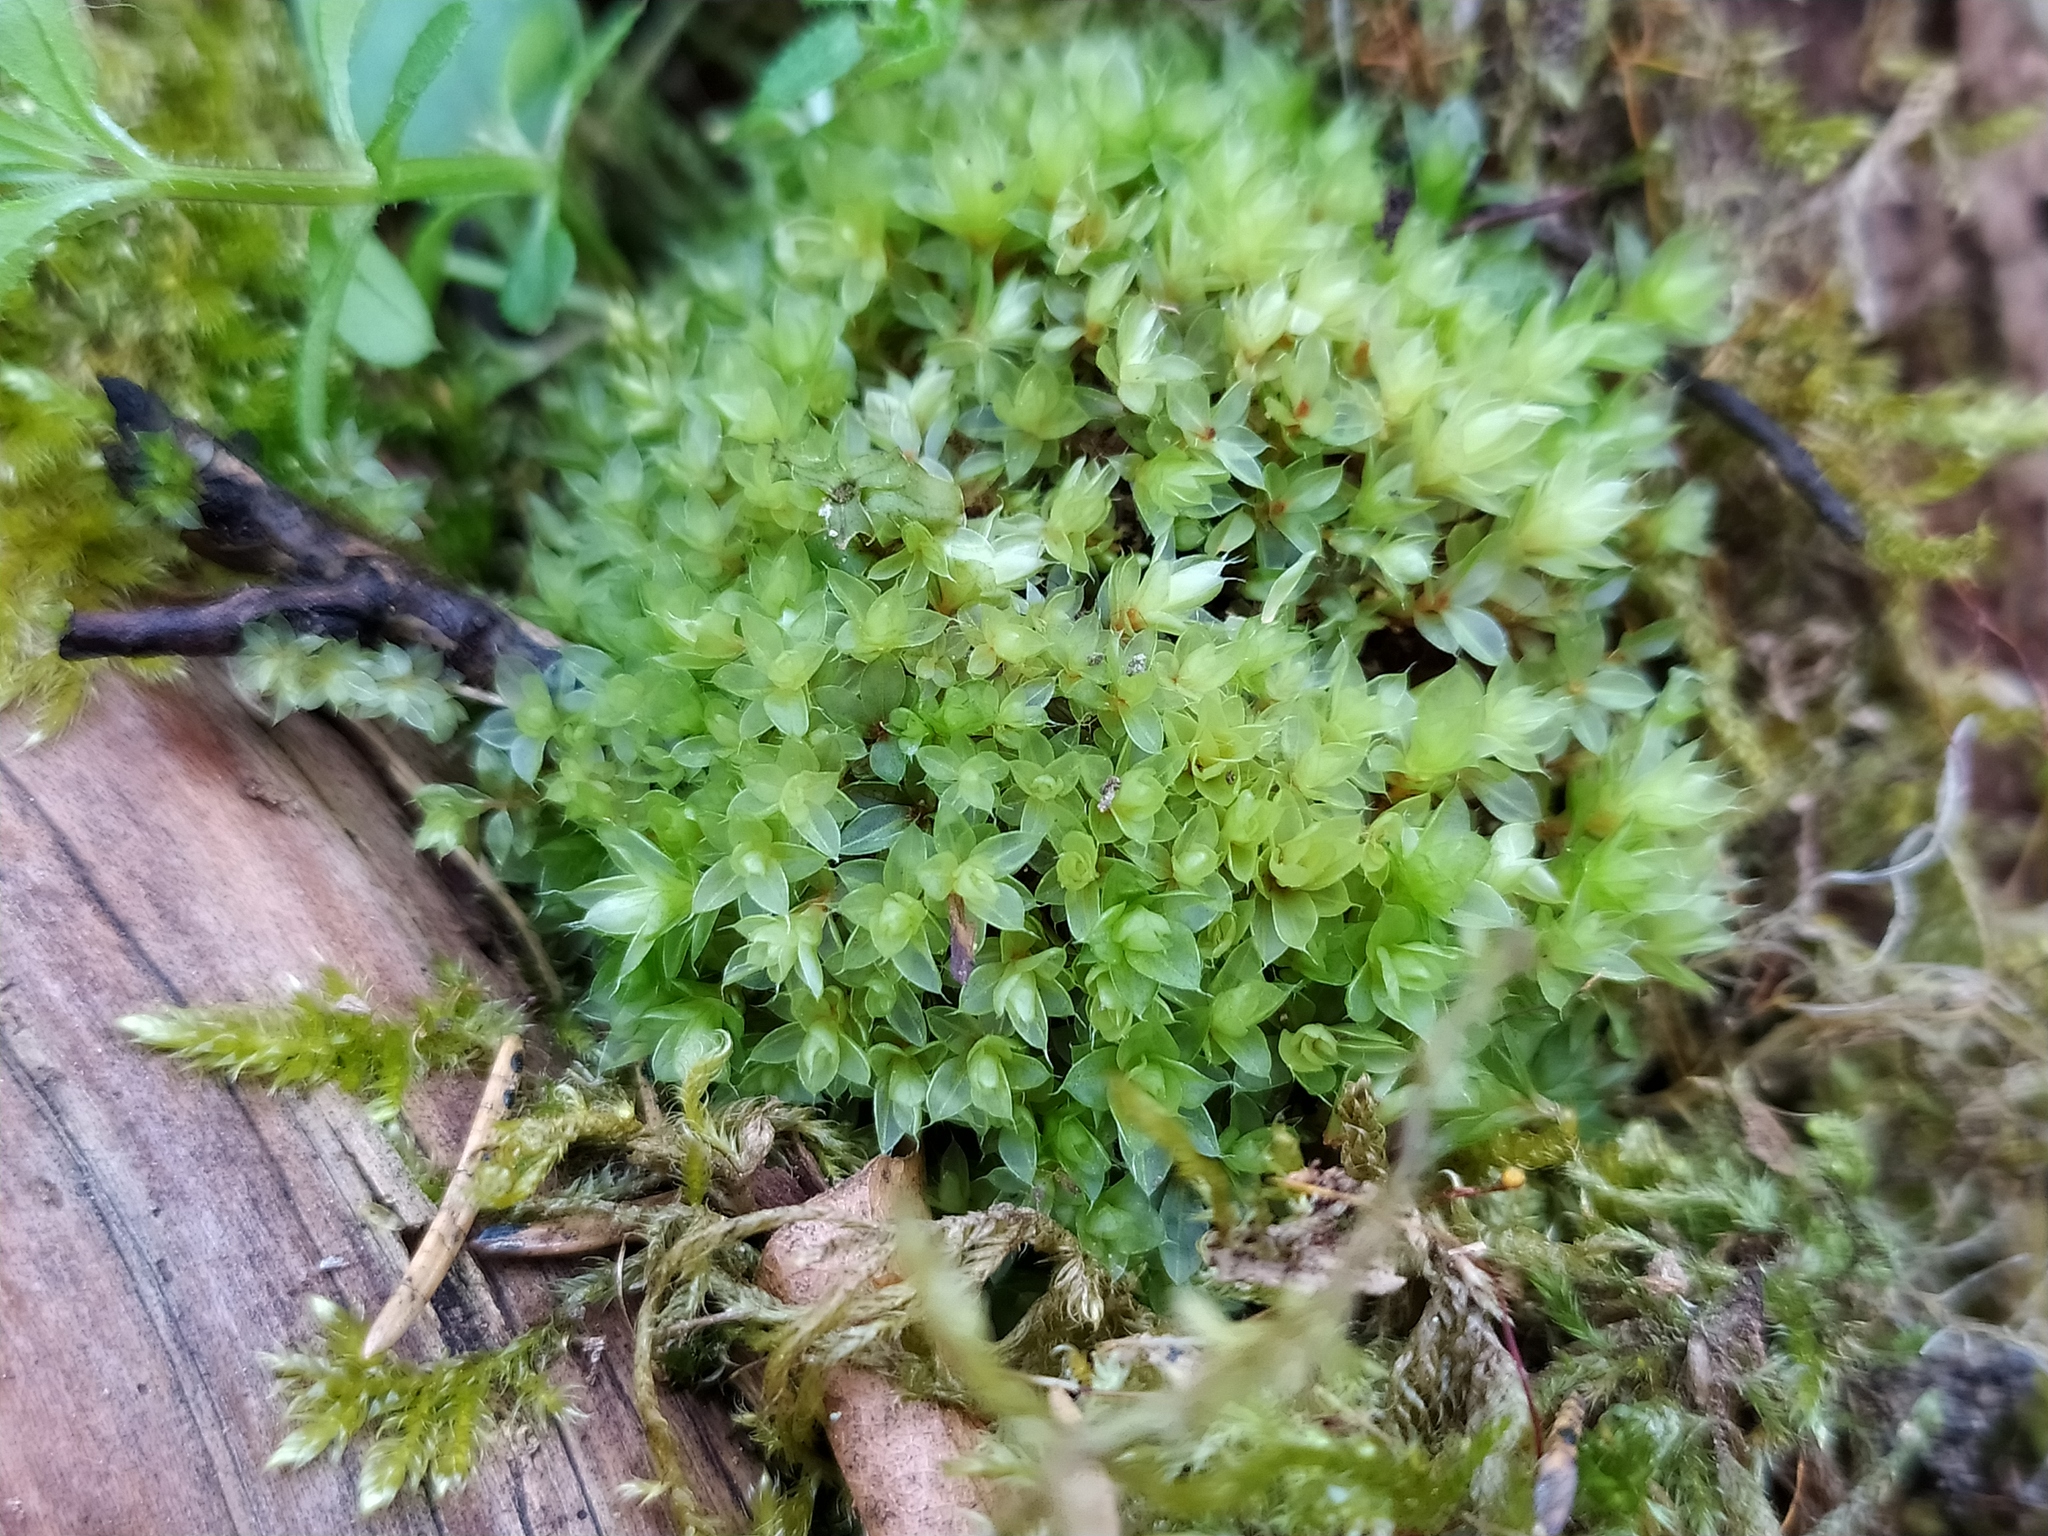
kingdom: Plantae
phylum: Bryophyta
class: Bryopsida
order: Bryales
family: Bryaceae
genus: Rosulabryum
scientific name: Rosulabryum capillare
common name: Capillary thread-moss
